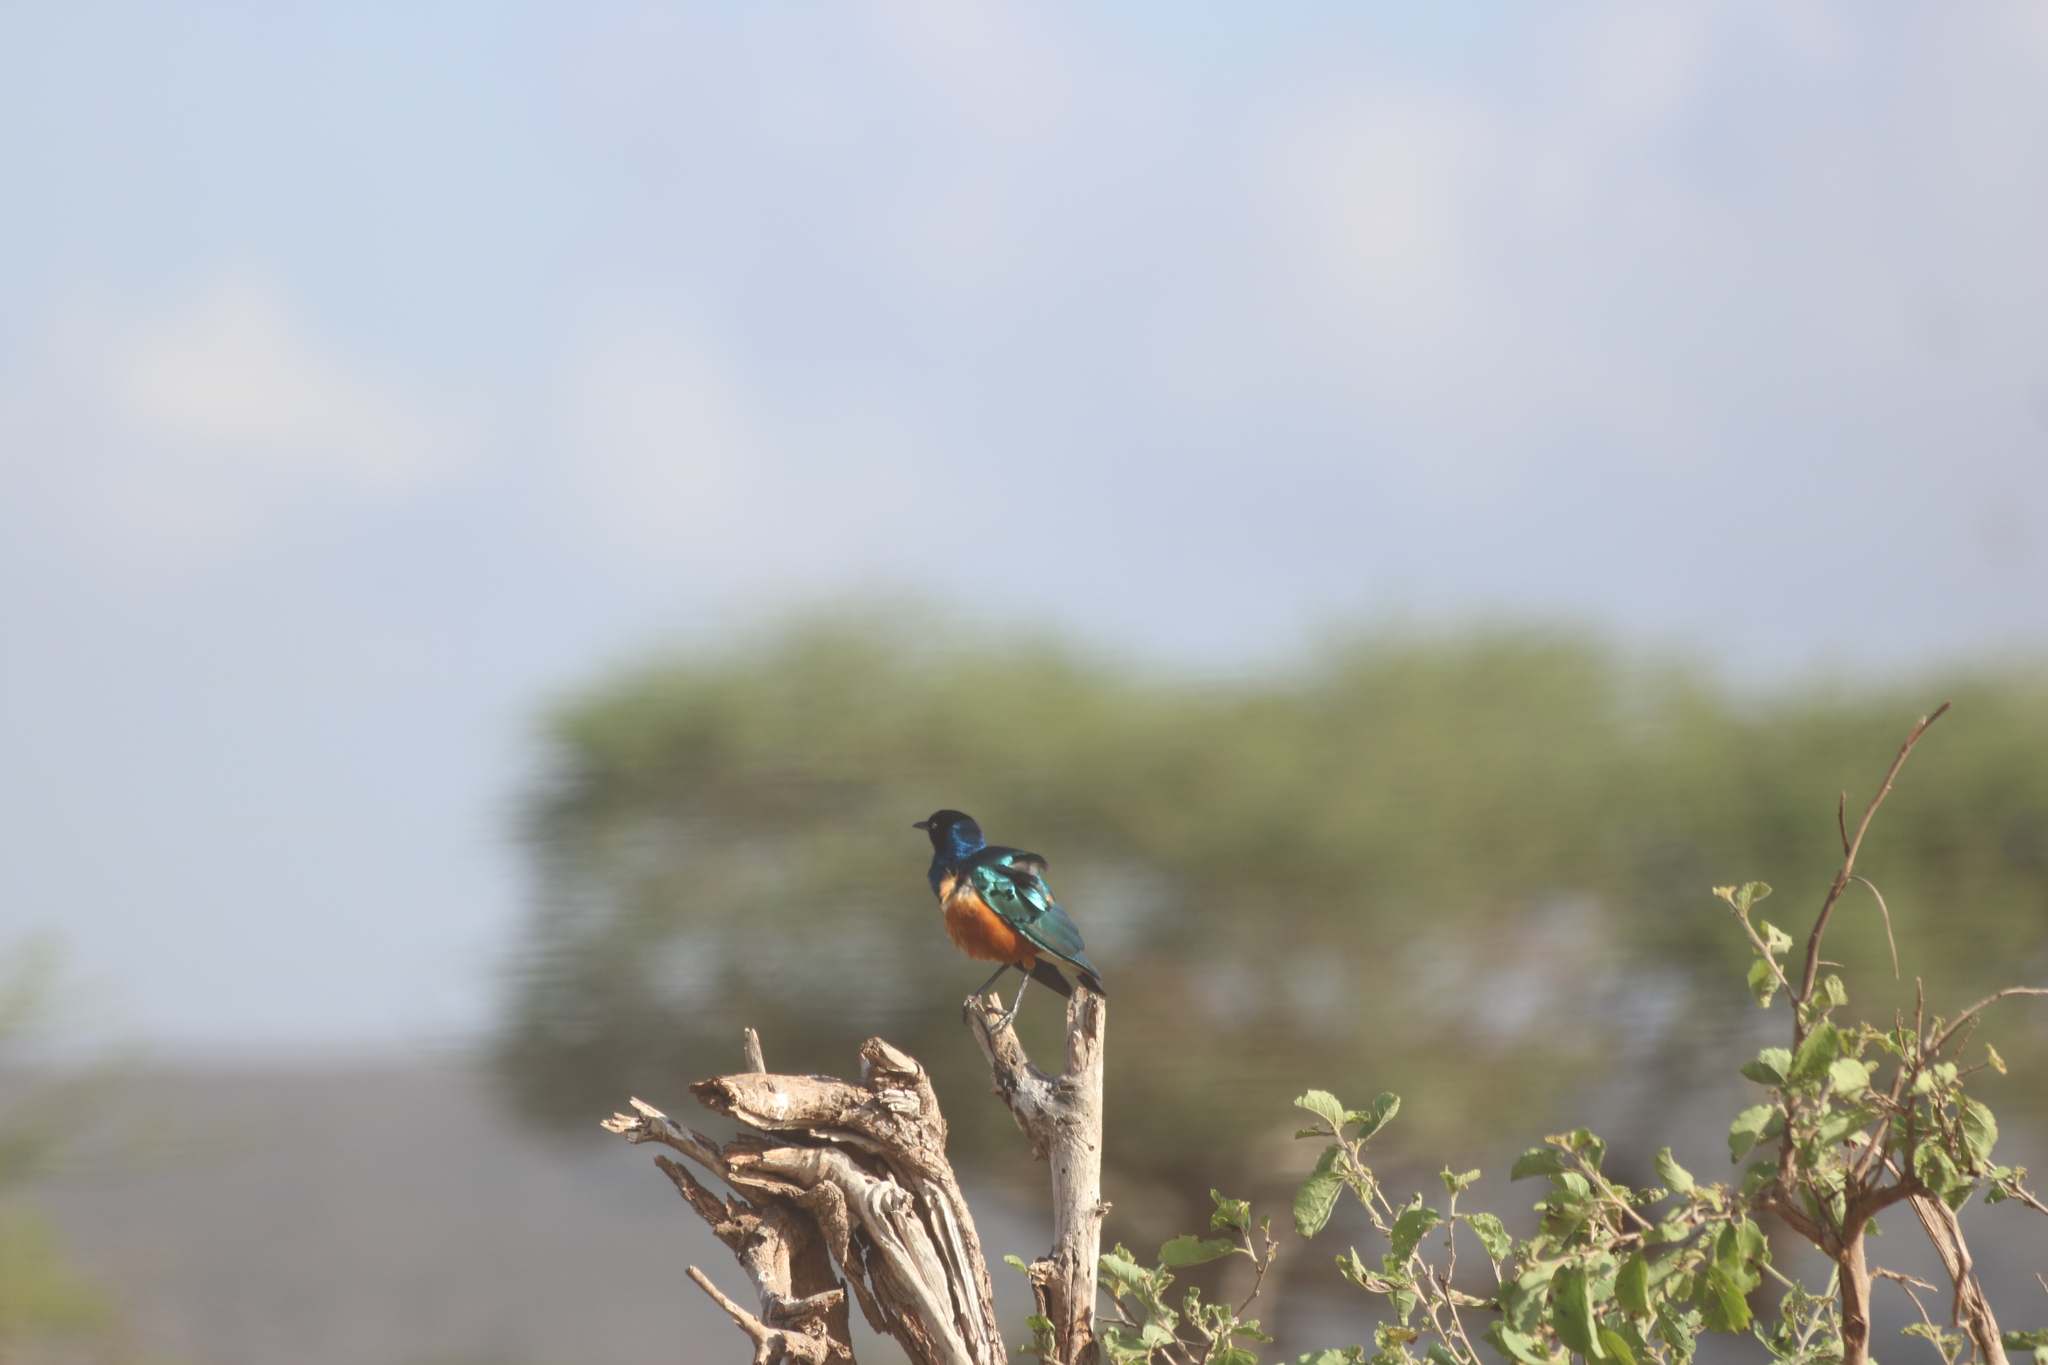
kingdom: Animalia
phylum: Chordata
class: Aves
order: Passeriformes
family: Sturnidae
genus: Lamprotornis
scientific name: Lamprotornis superbus
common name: Superb starling
